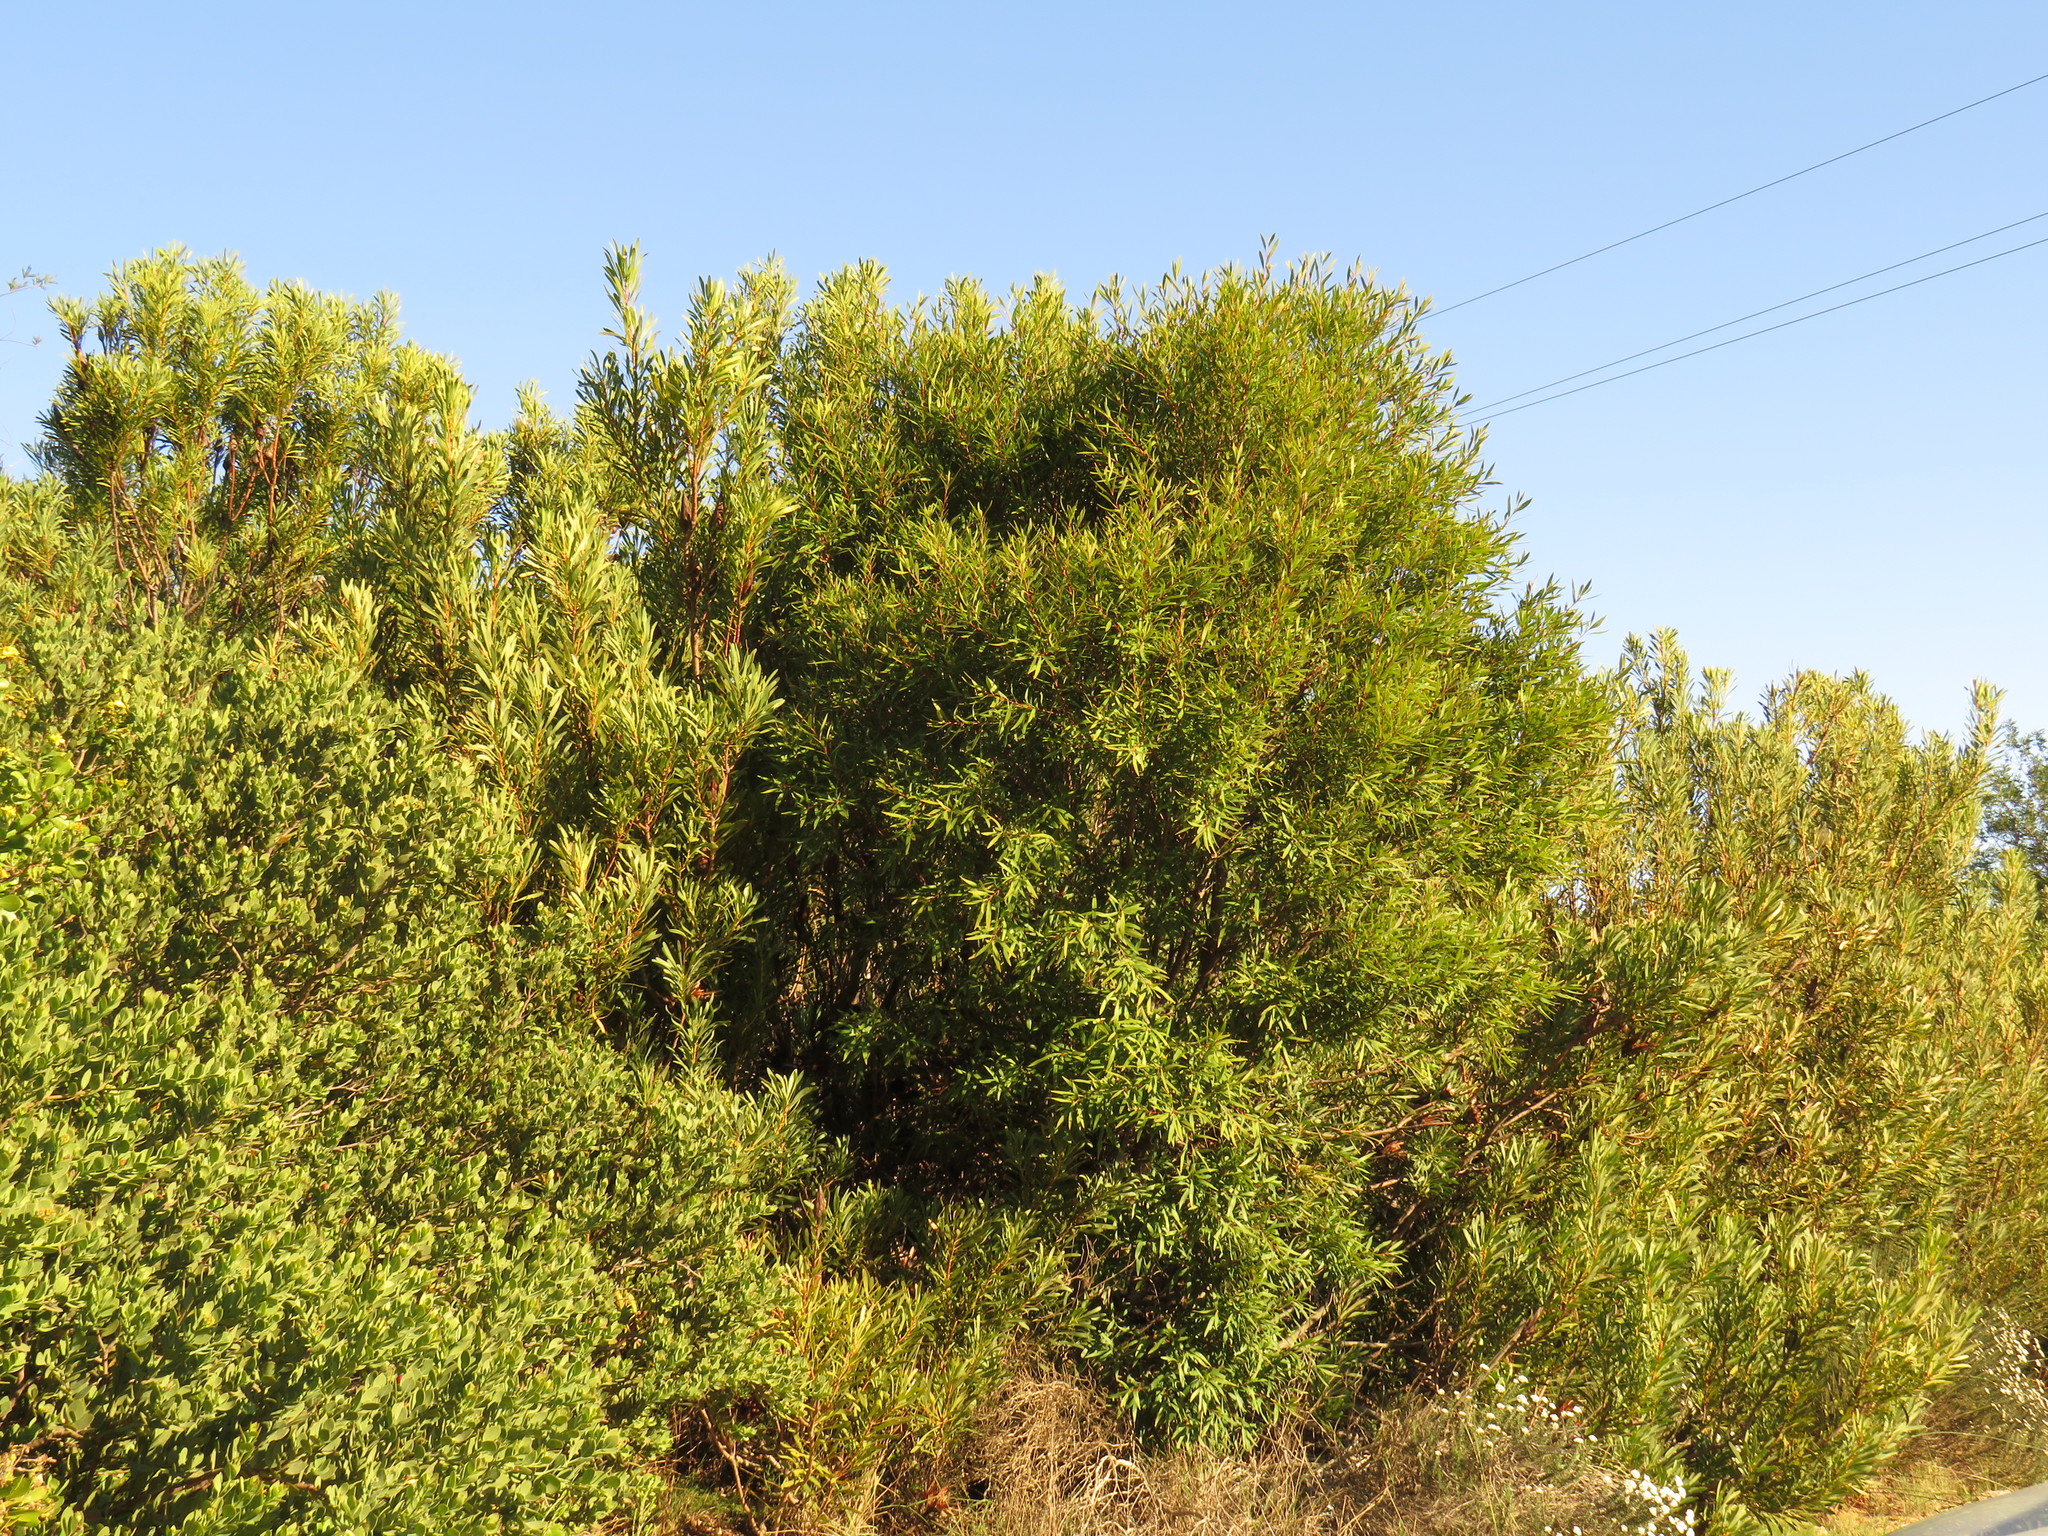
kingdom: Plantae
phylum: Tracheophyta
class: Magnoliopsida
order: Proteales
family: Proteaceae
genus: Hakea
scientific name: Hakea salicifolia
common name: Willow hakea
